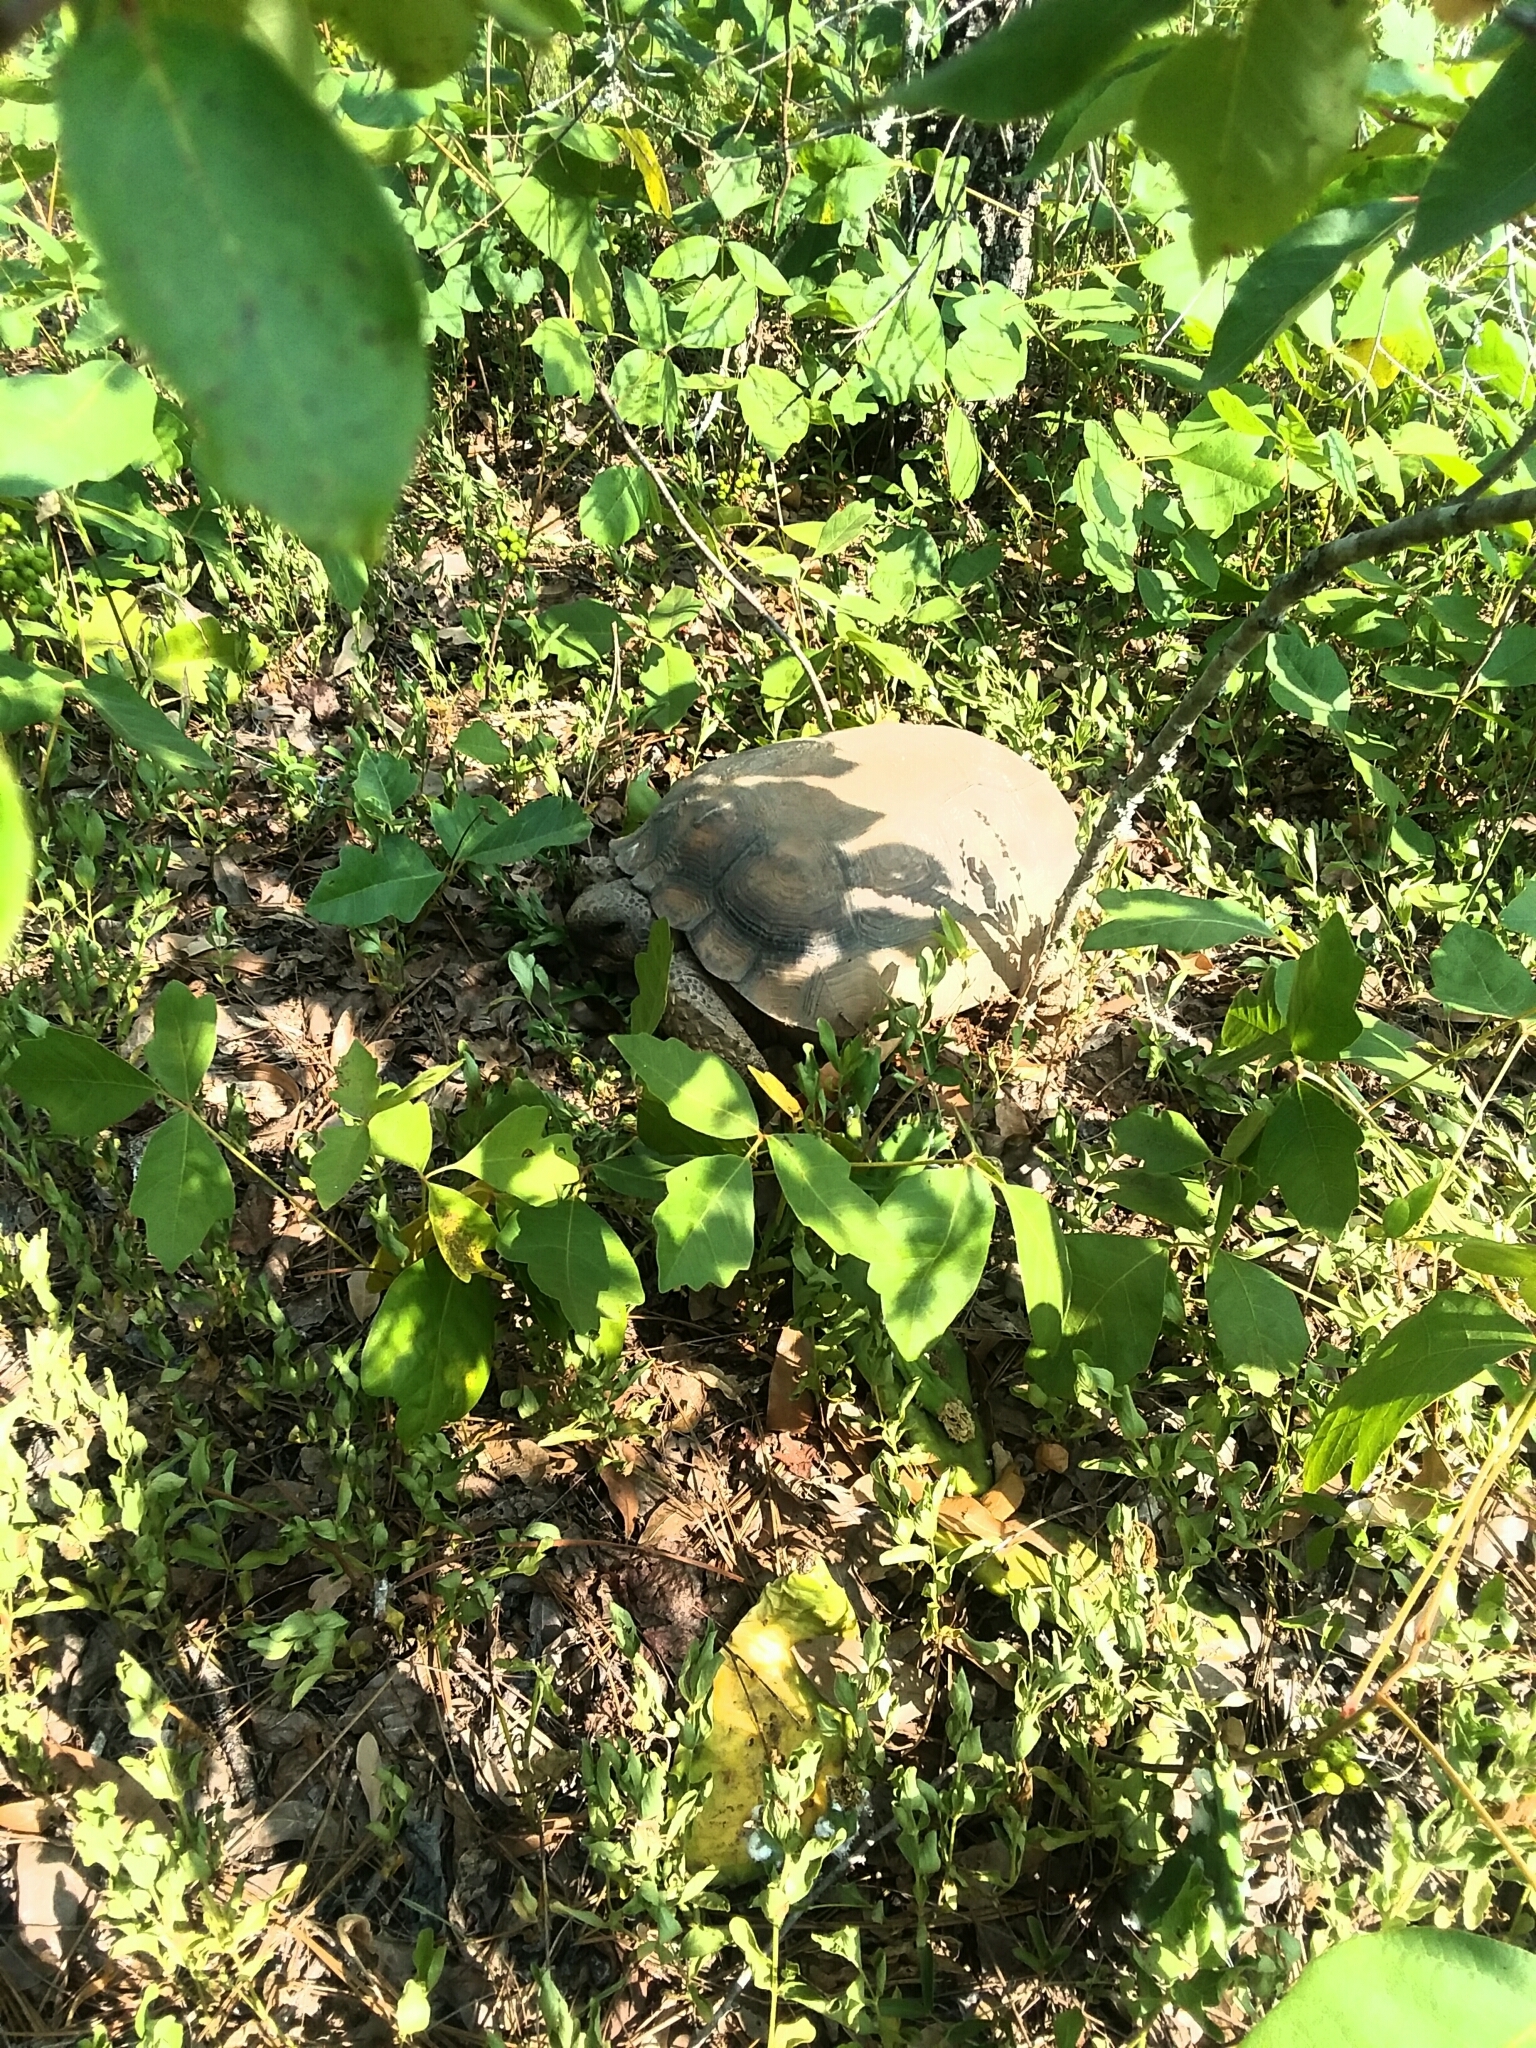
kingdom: Animalia
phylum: Chordata
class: Testudines
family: Testudinidae
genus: Gopherus
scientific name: Gopherus polyphemus
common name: Florida gopher tortoise
